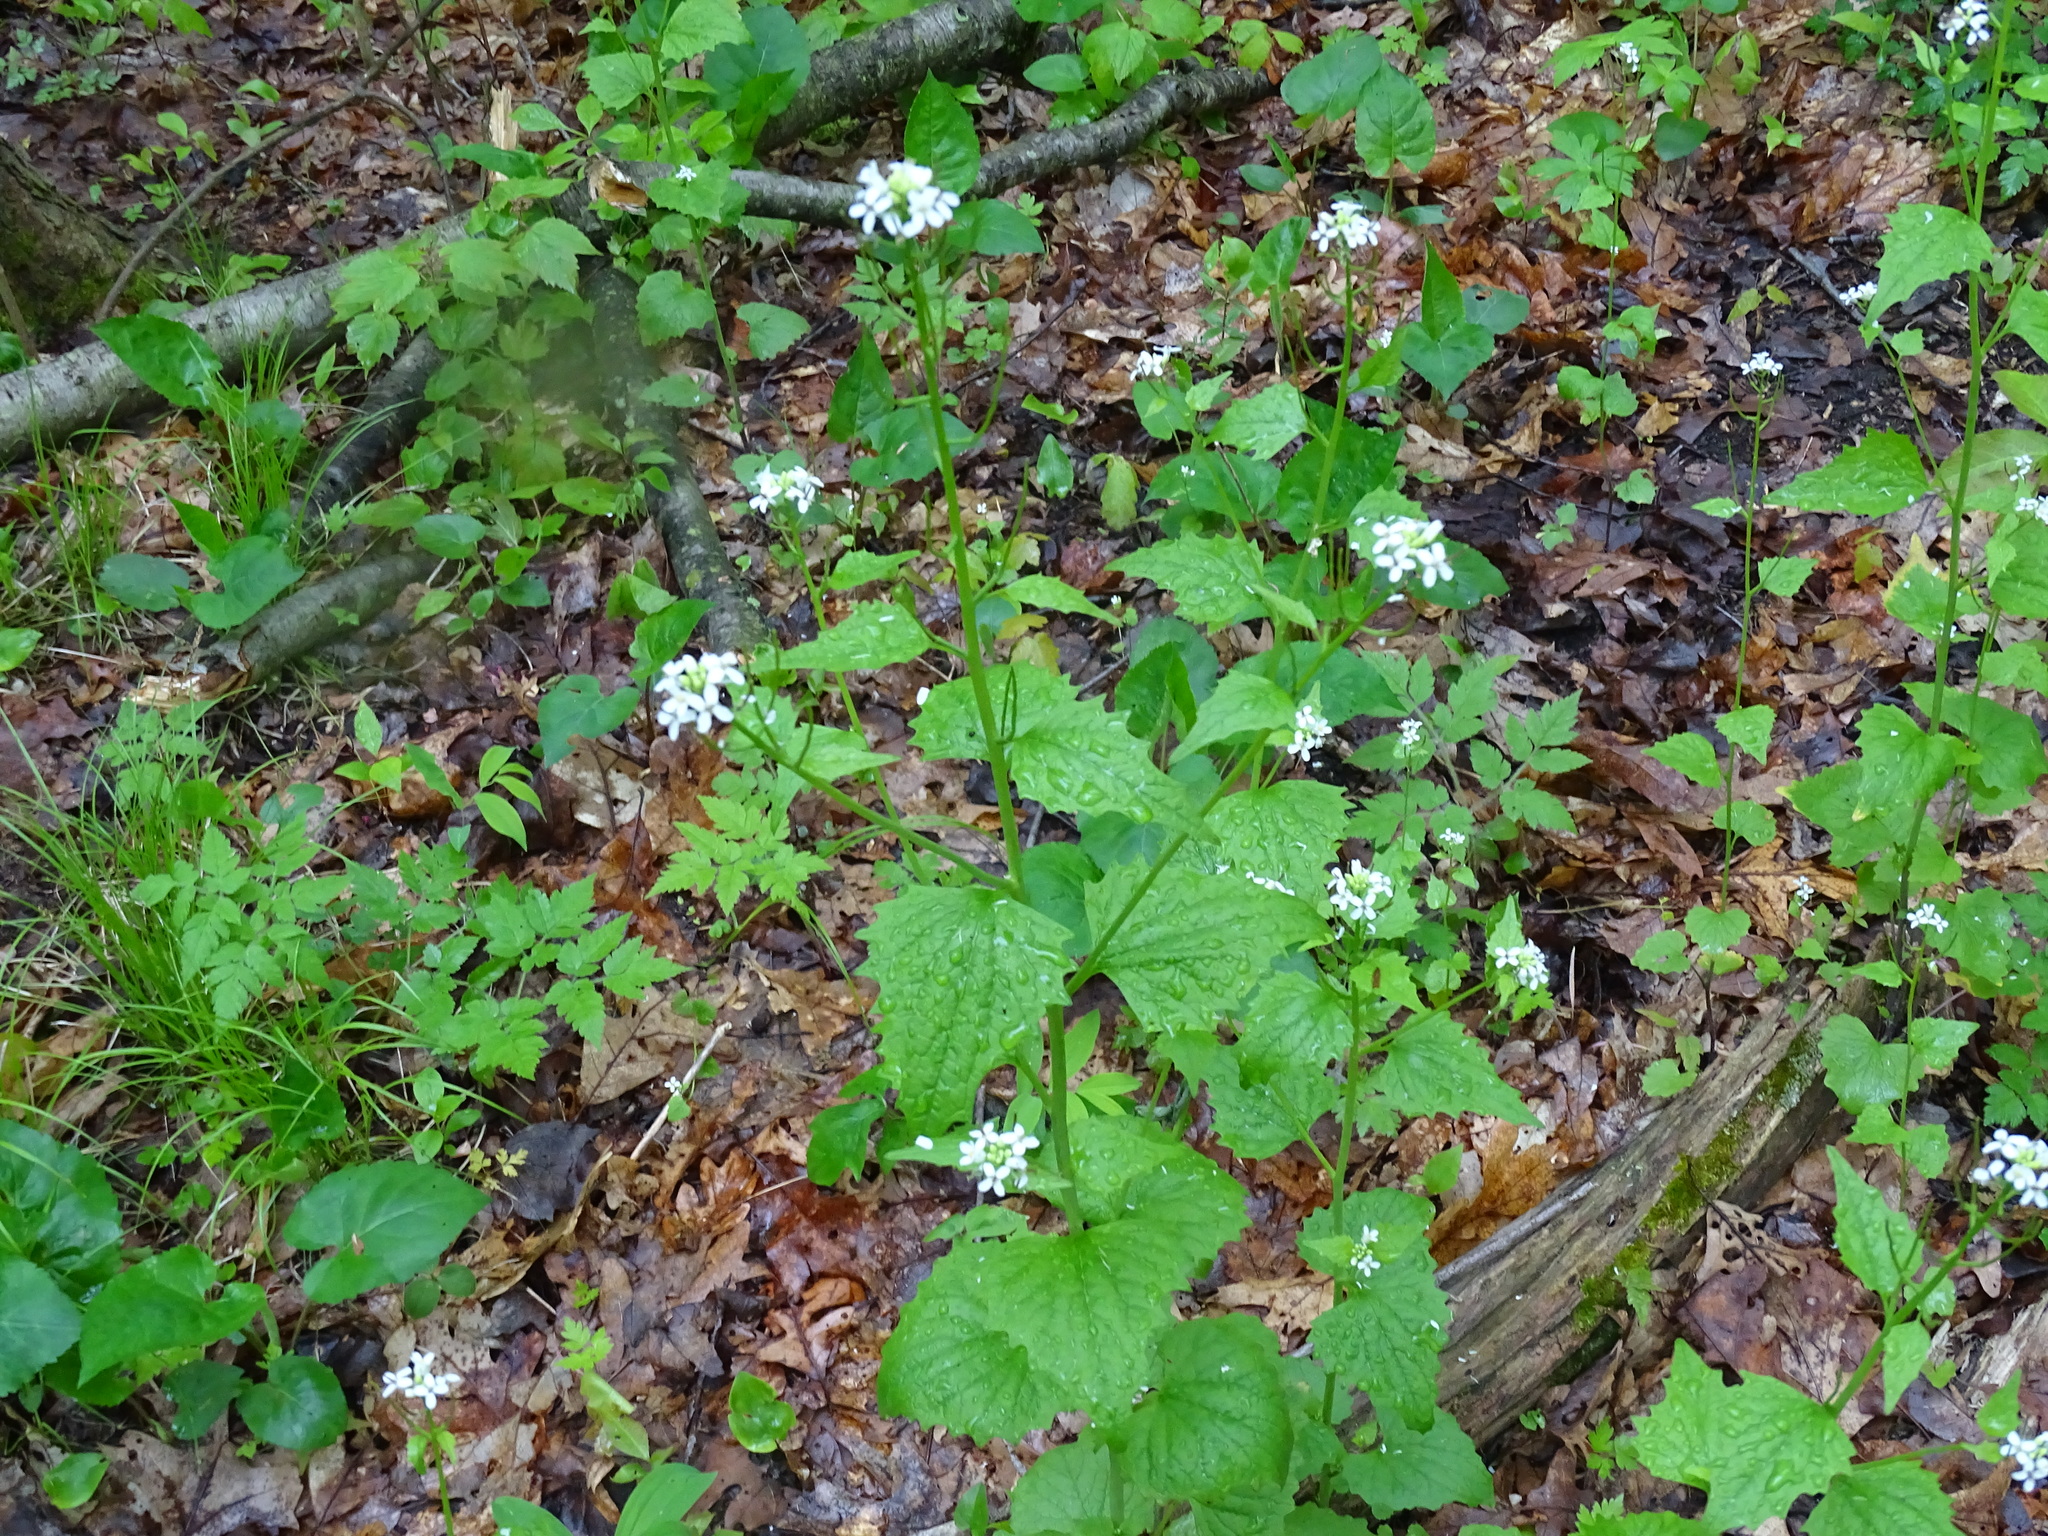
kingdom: Plantae
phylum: Tracheophyta
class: Magnoliopsida
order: Brassicales
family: Brassicaceae
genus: Alliaria
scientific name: Alliaria petiolata
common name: Garlic mustard
